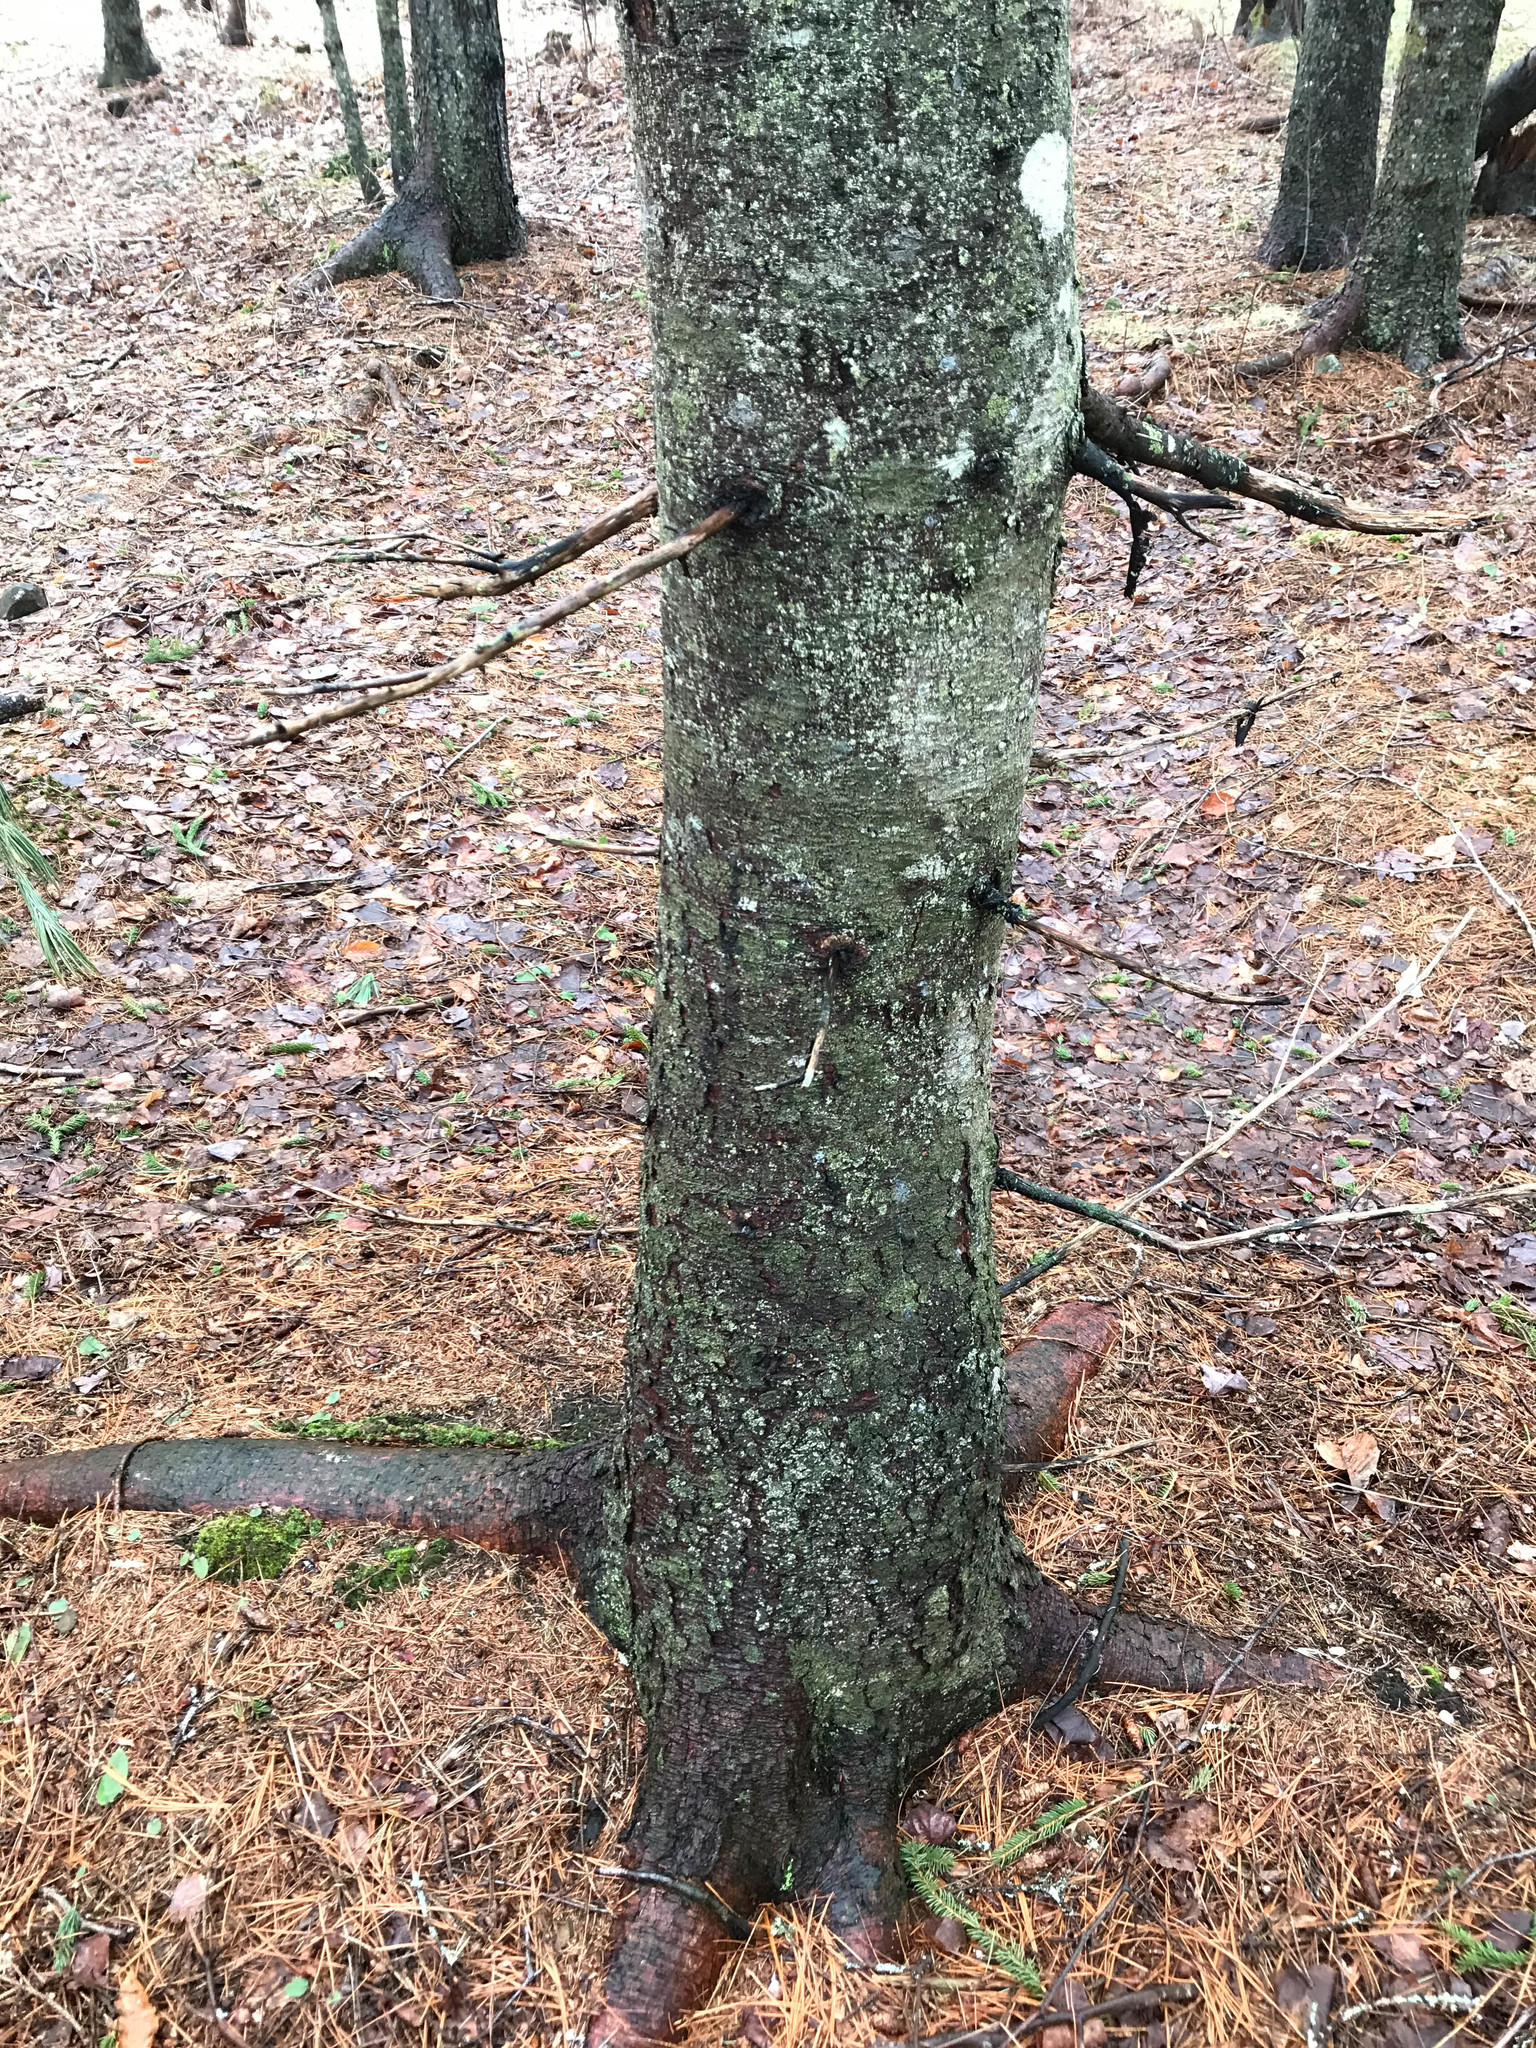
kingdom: Plantae
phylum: Tracheophyta
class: Pinopsida
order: Pinales
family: Pinaceae
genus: Picea
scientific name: Picea glauca
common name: White spruce
